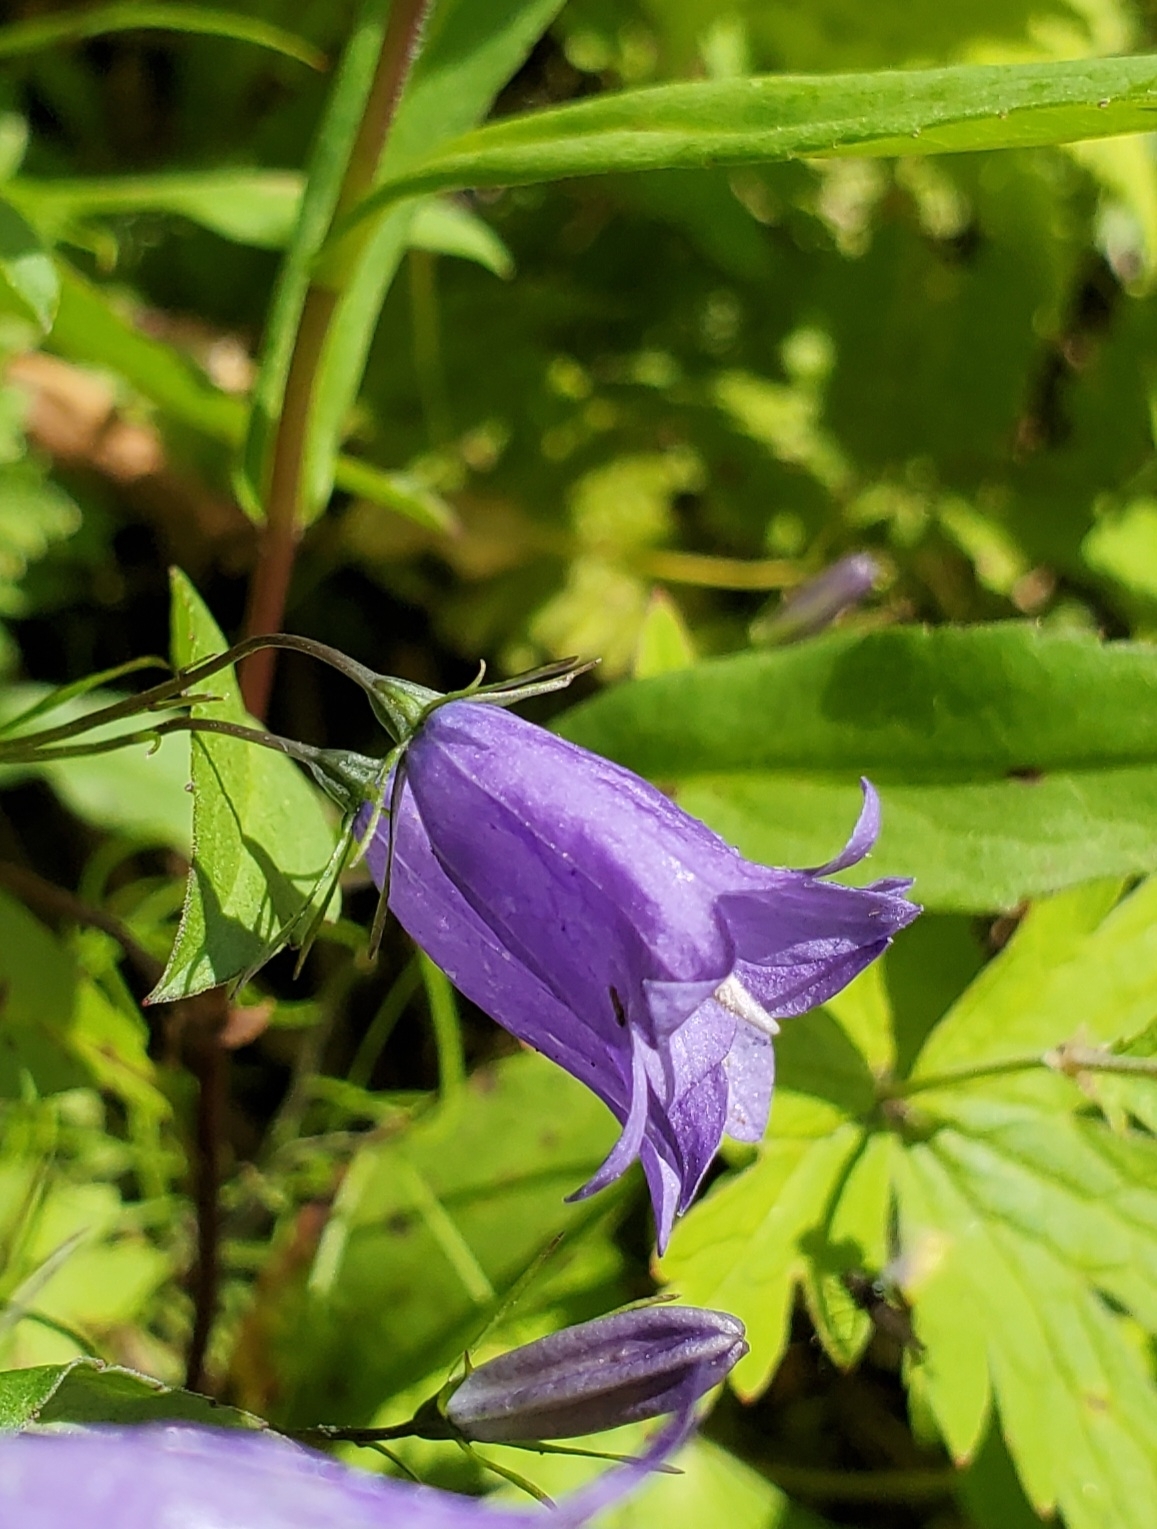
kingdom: Plantae
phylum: Tracheophyta
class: Magnoliopsida
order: Asterales
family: Campanulaceae
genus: Campanula
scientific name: Campanula alaskana
